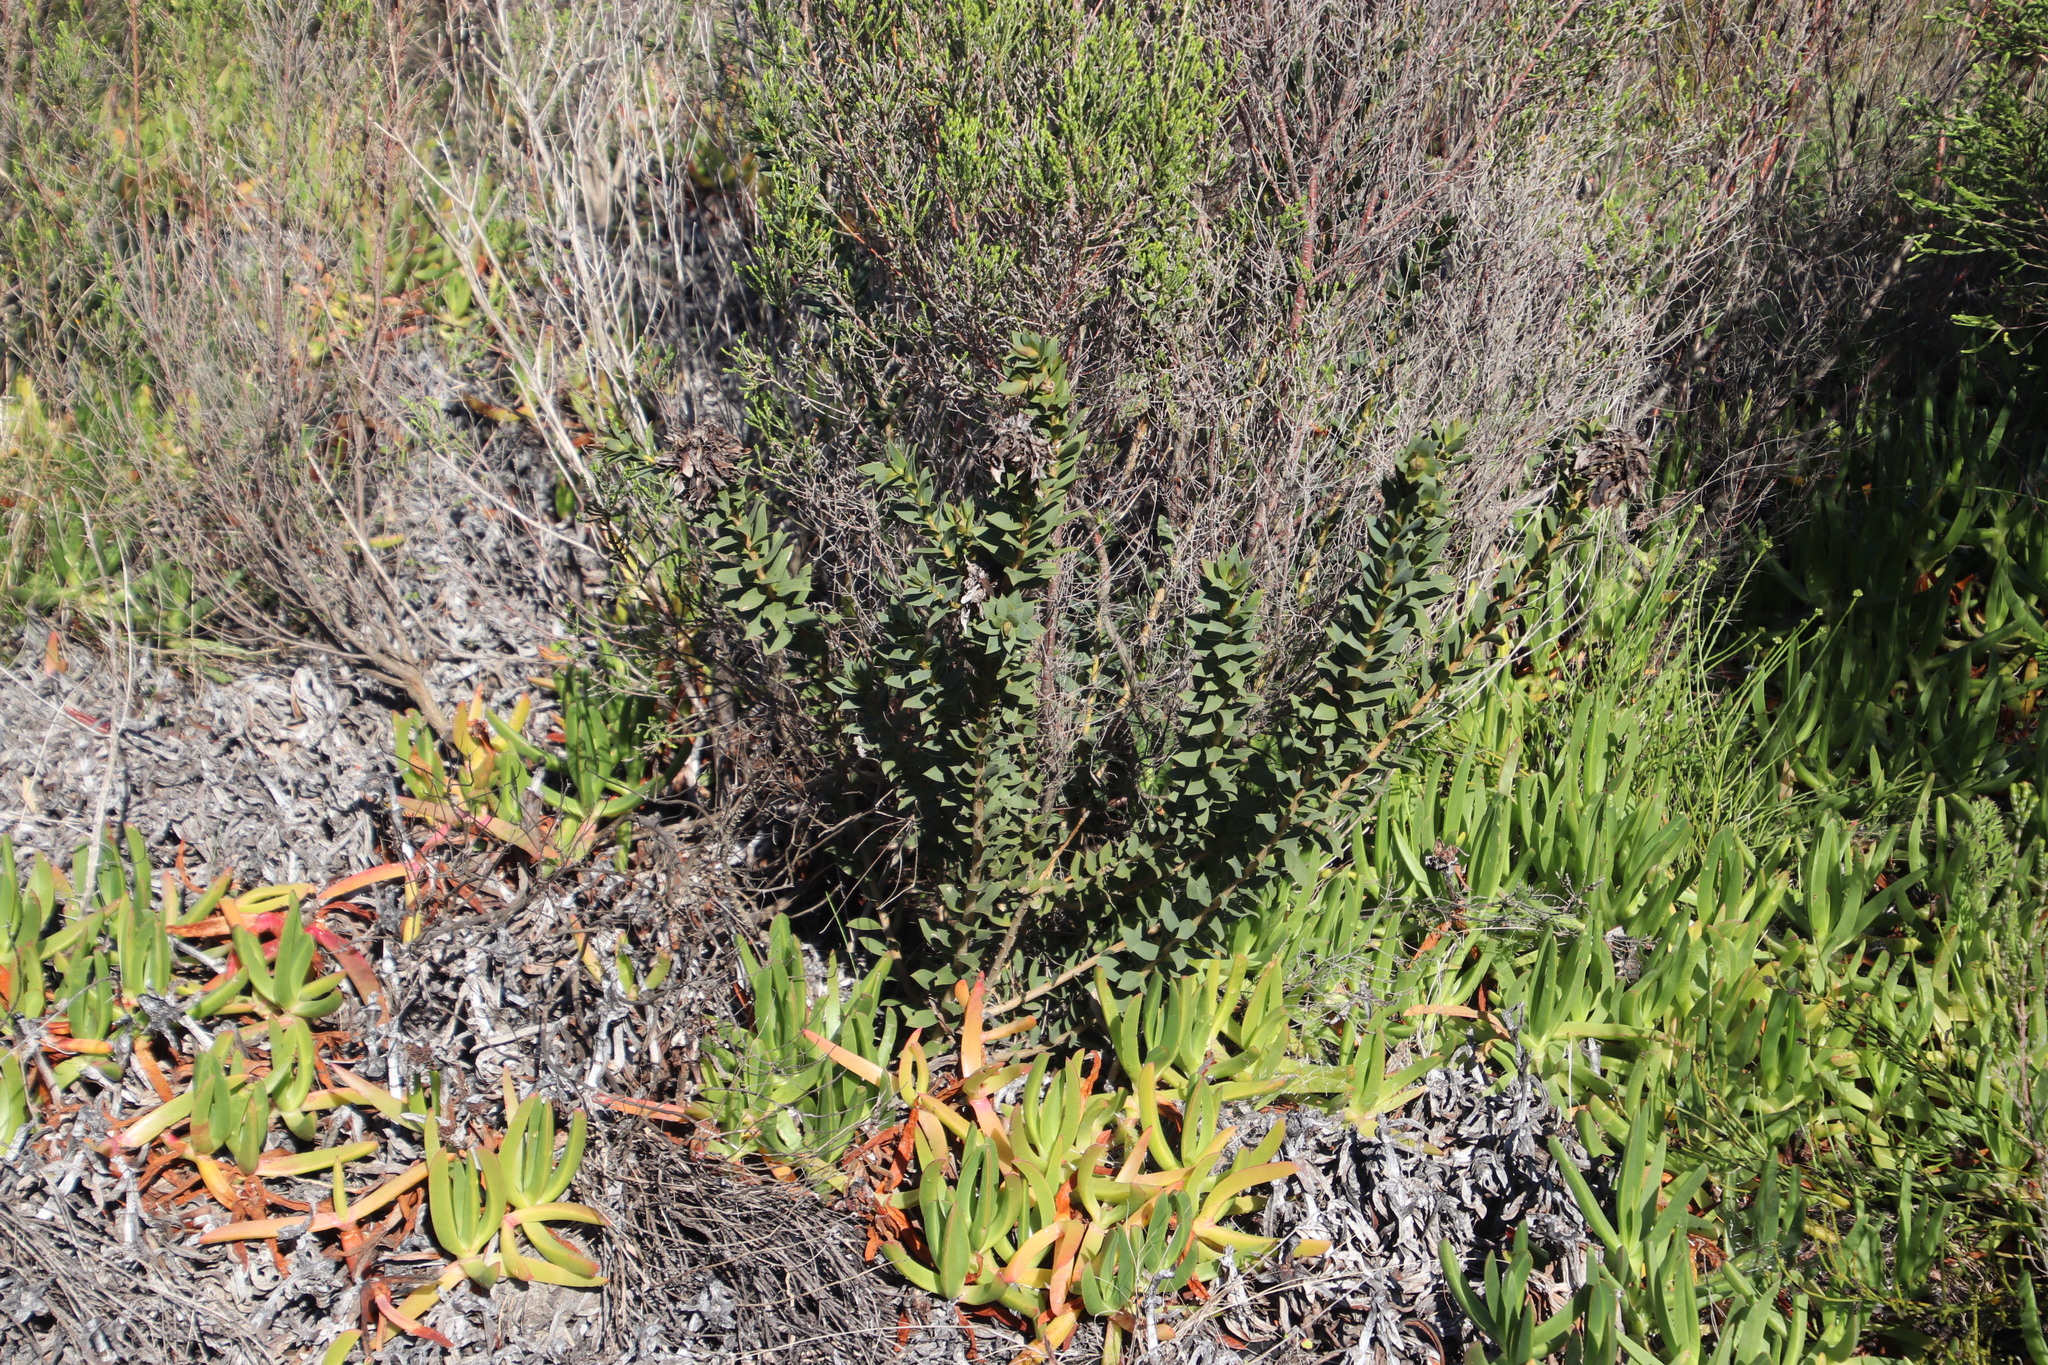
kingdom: Plantae
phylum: Tracheophyta
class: Magnoliopsida
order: Fabales
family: Fabaceae
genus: Liparia
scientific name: Liparia splendens
